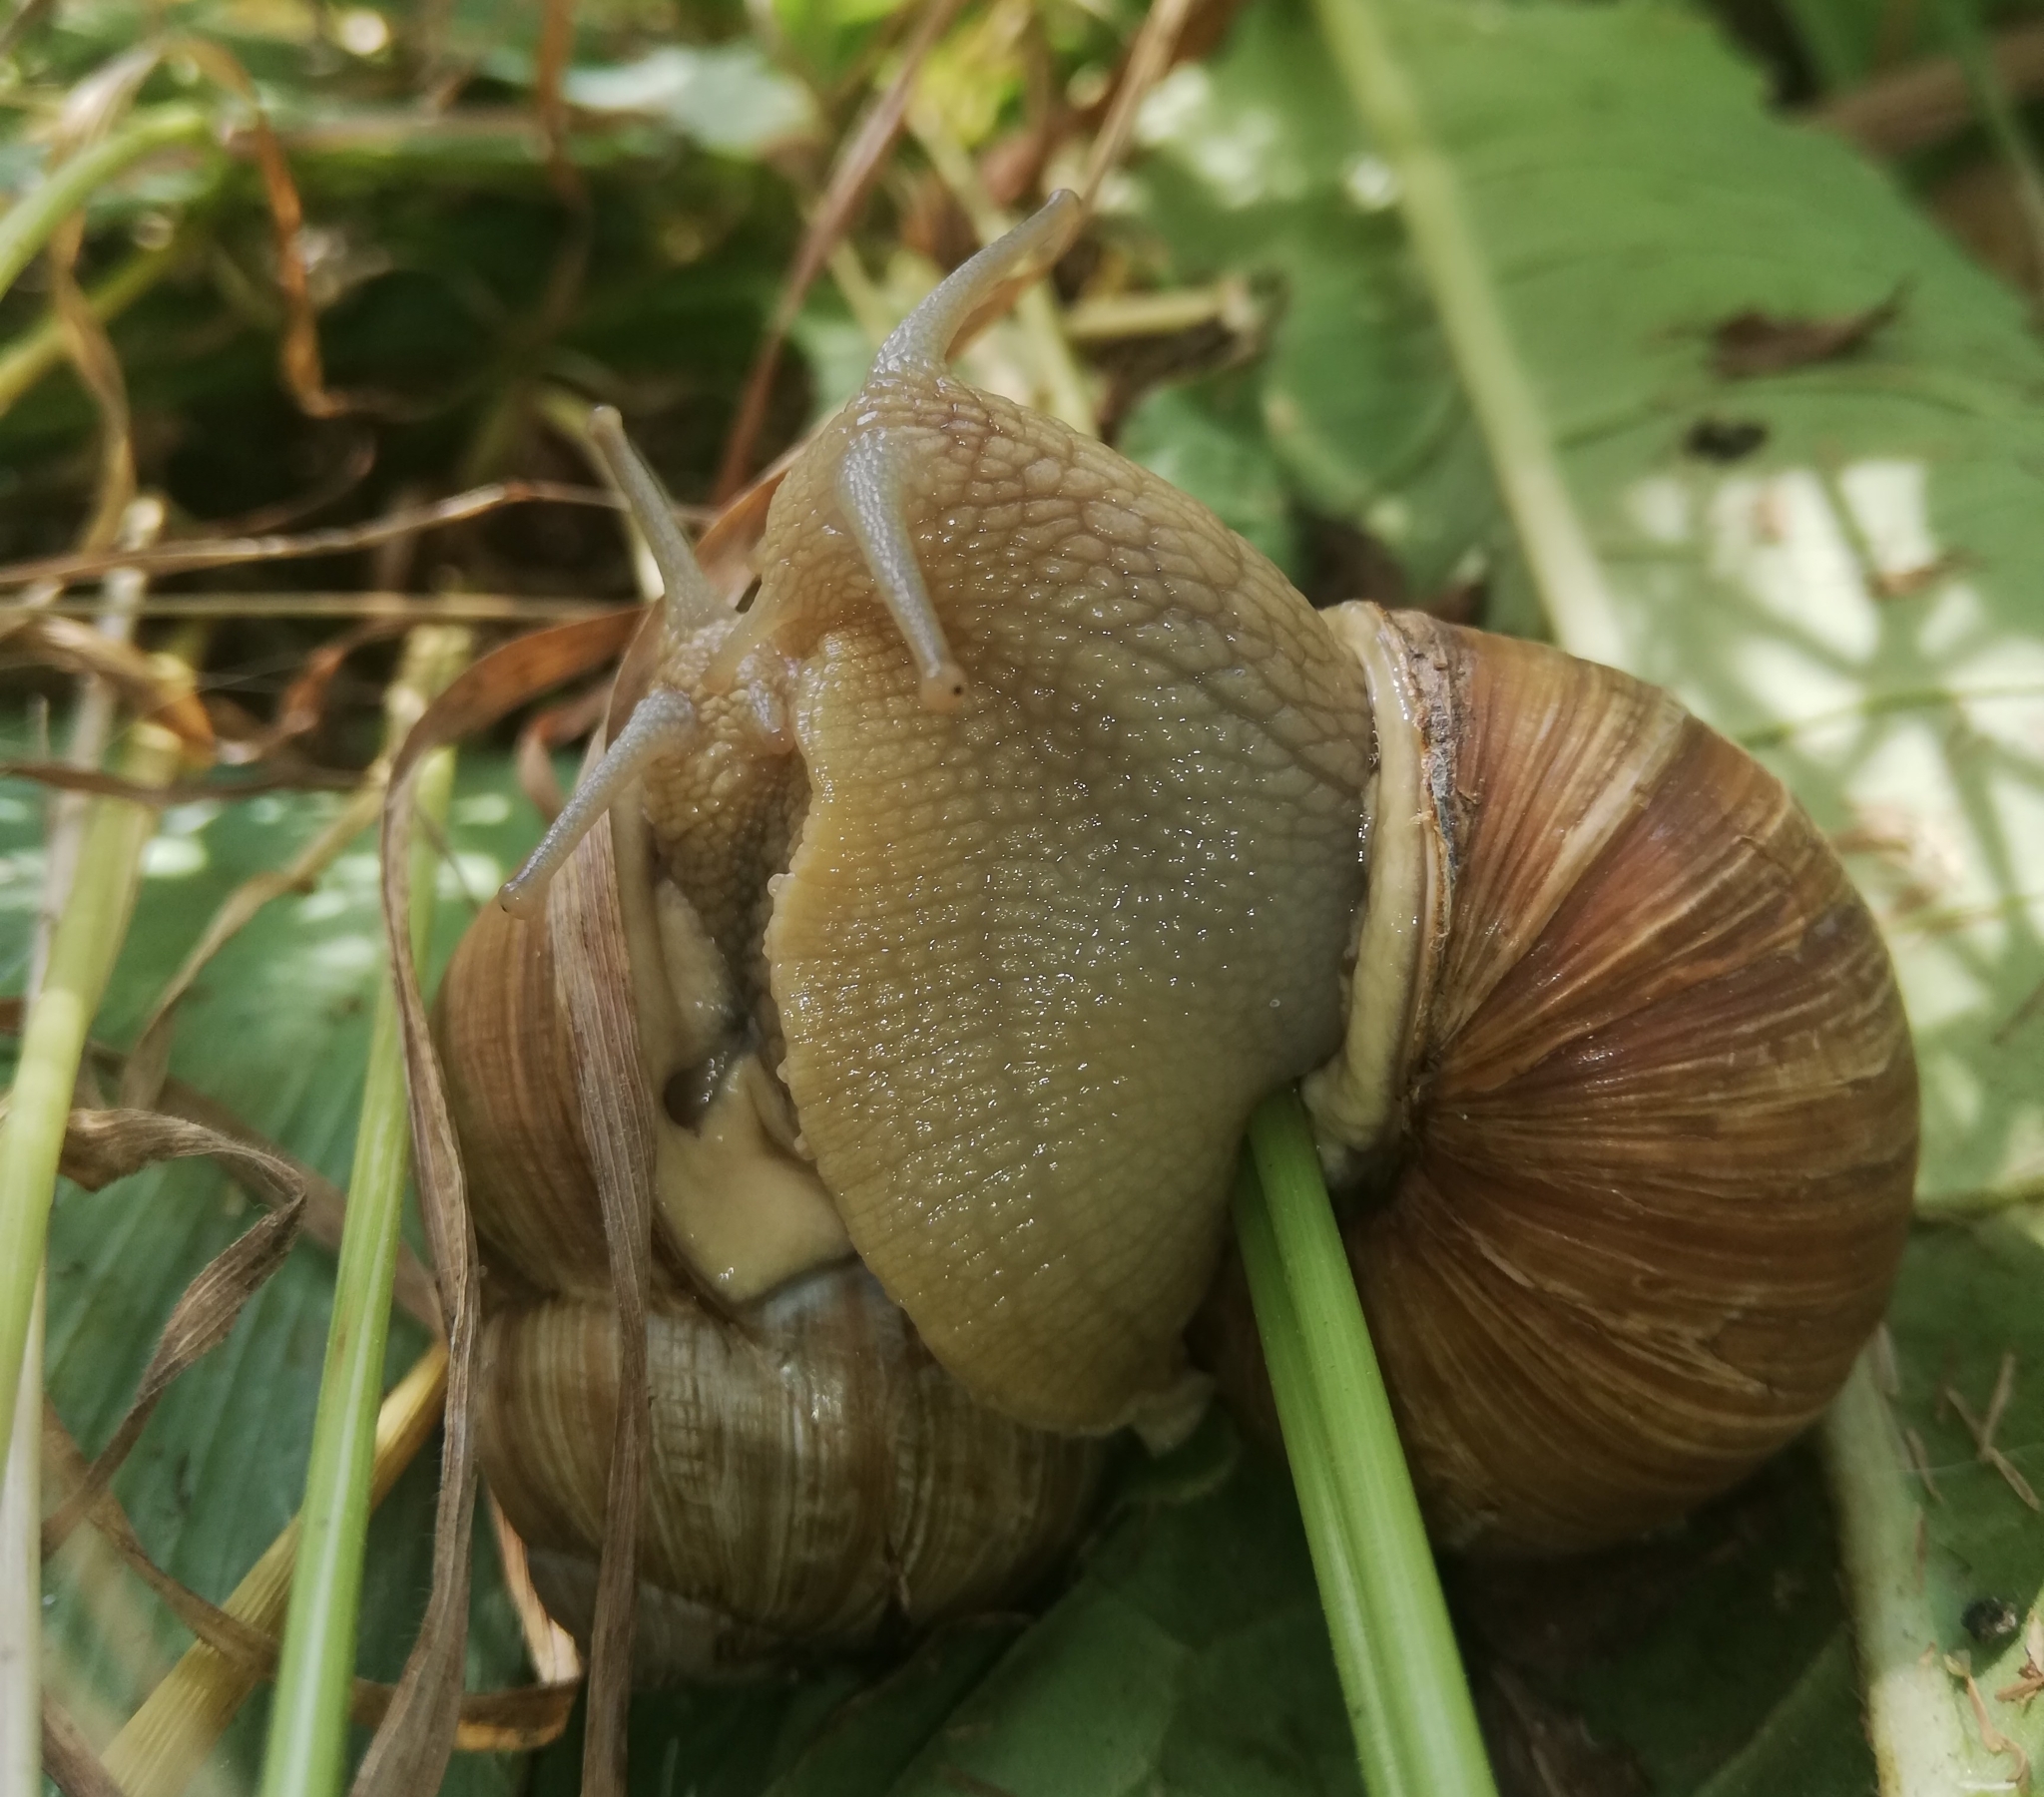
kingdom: Animalia
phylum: Mollusca
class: Gastropoda
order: Stylommatophora
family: Helicidae
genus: Helix
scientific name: Helix pomatia
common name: Roman snail
